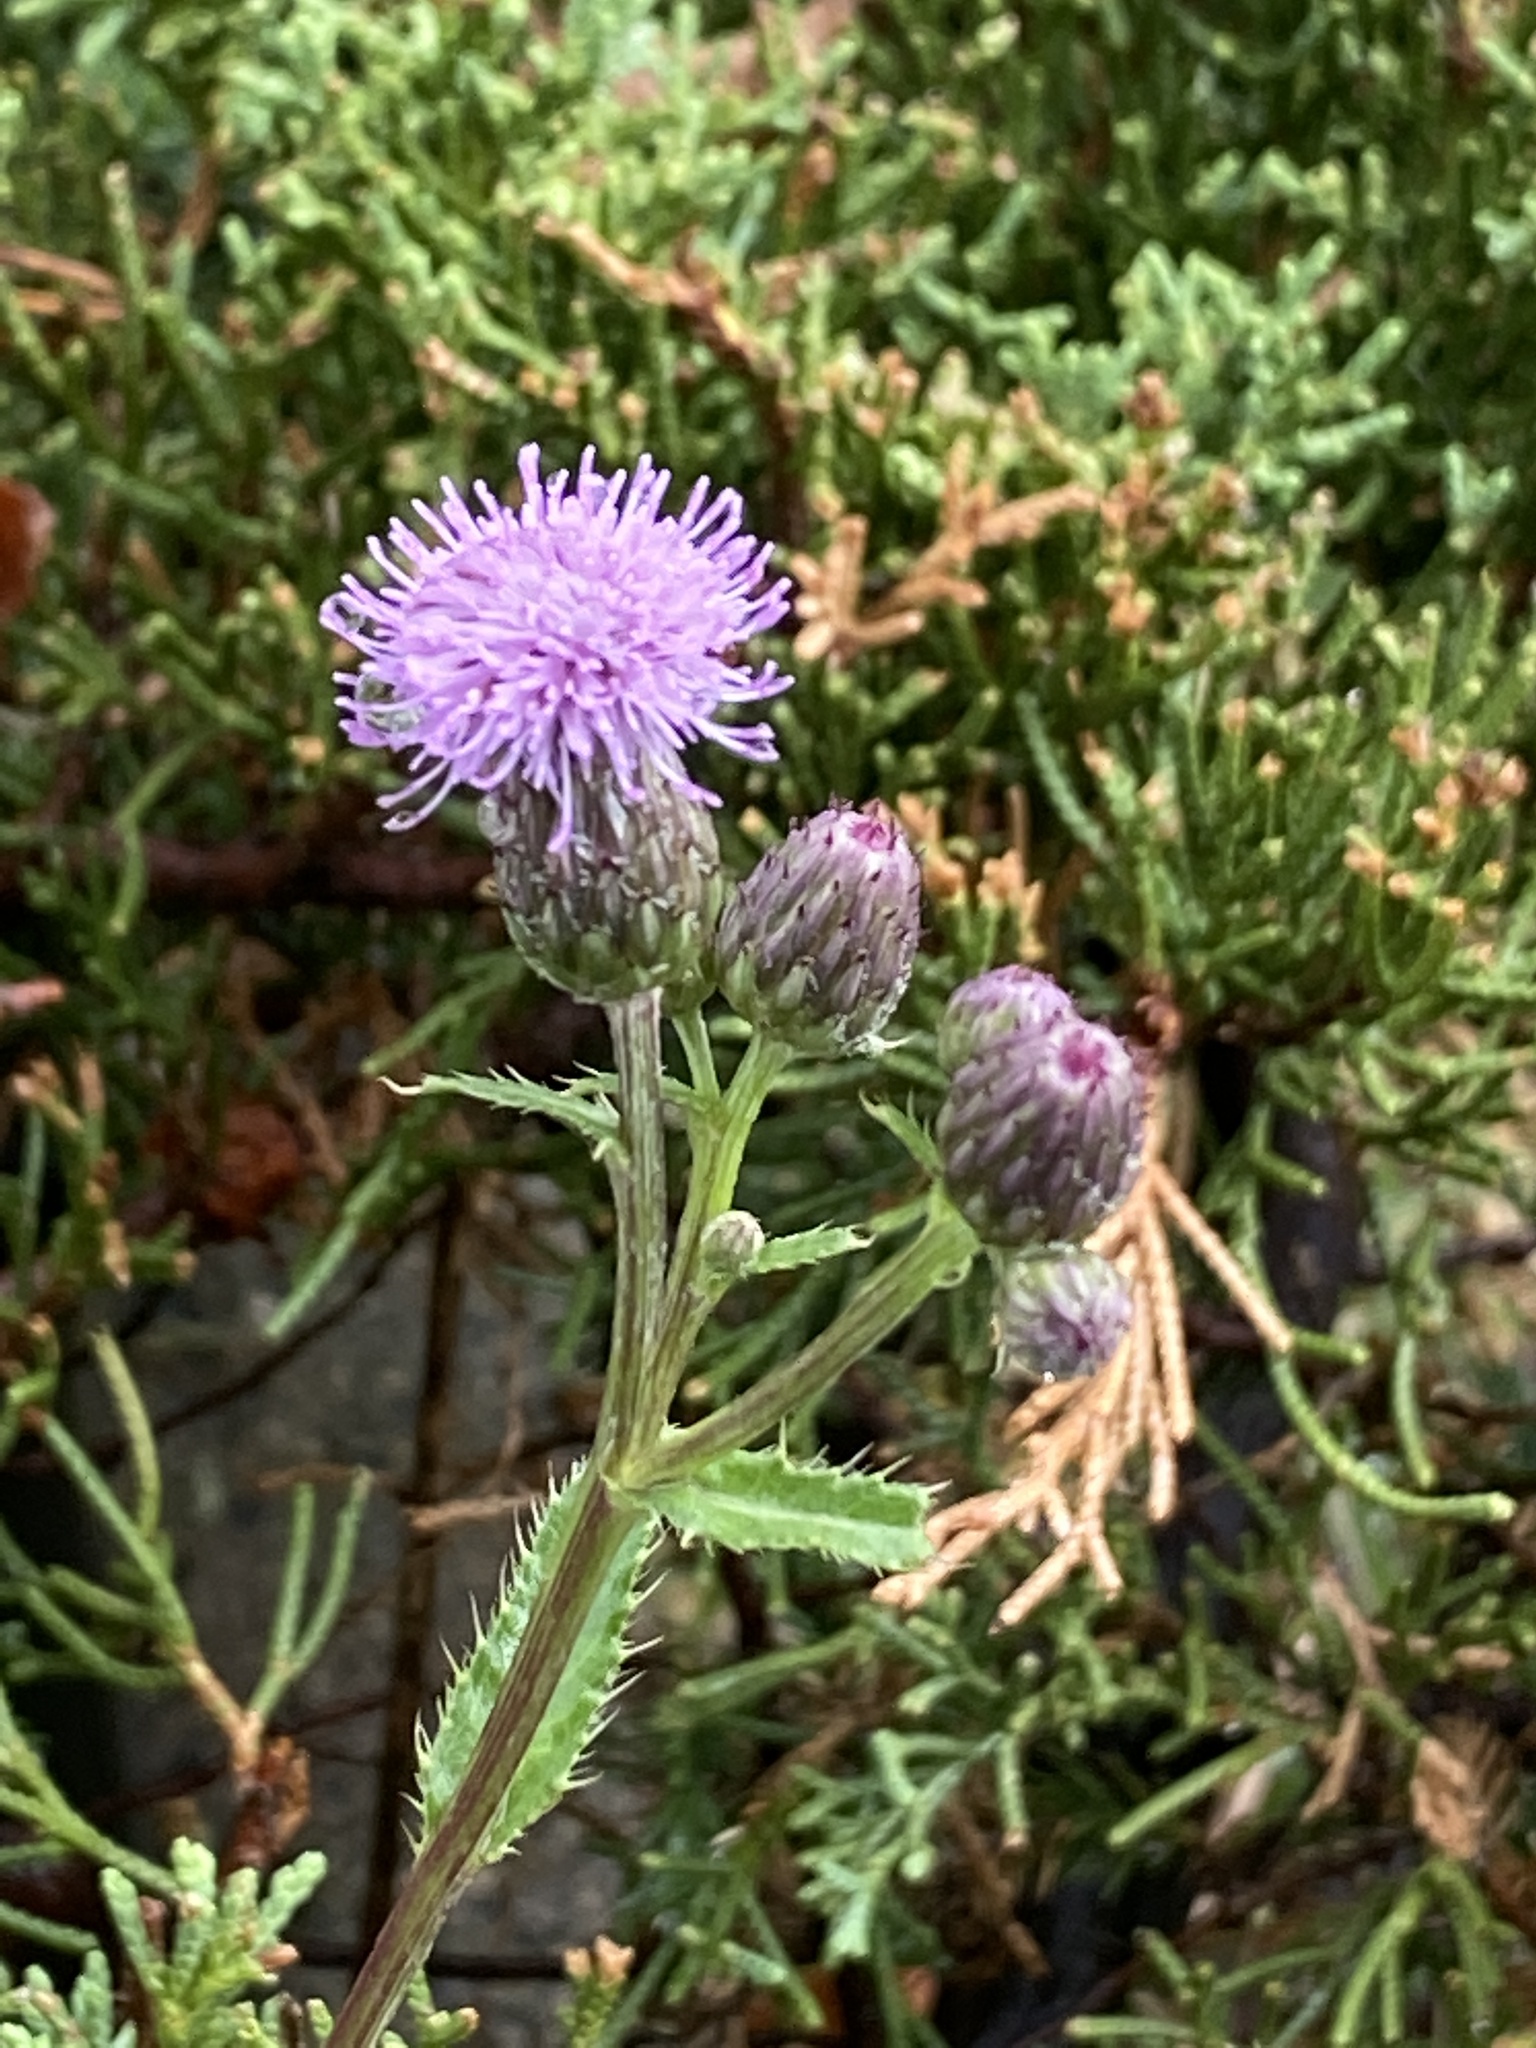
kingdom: Plantae
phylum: Tracheophyta
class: Magnoliopsida
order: Asterales
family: Asteraceae
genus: Cirsium
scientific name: Cirsium arvense
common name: Creeping thistle
